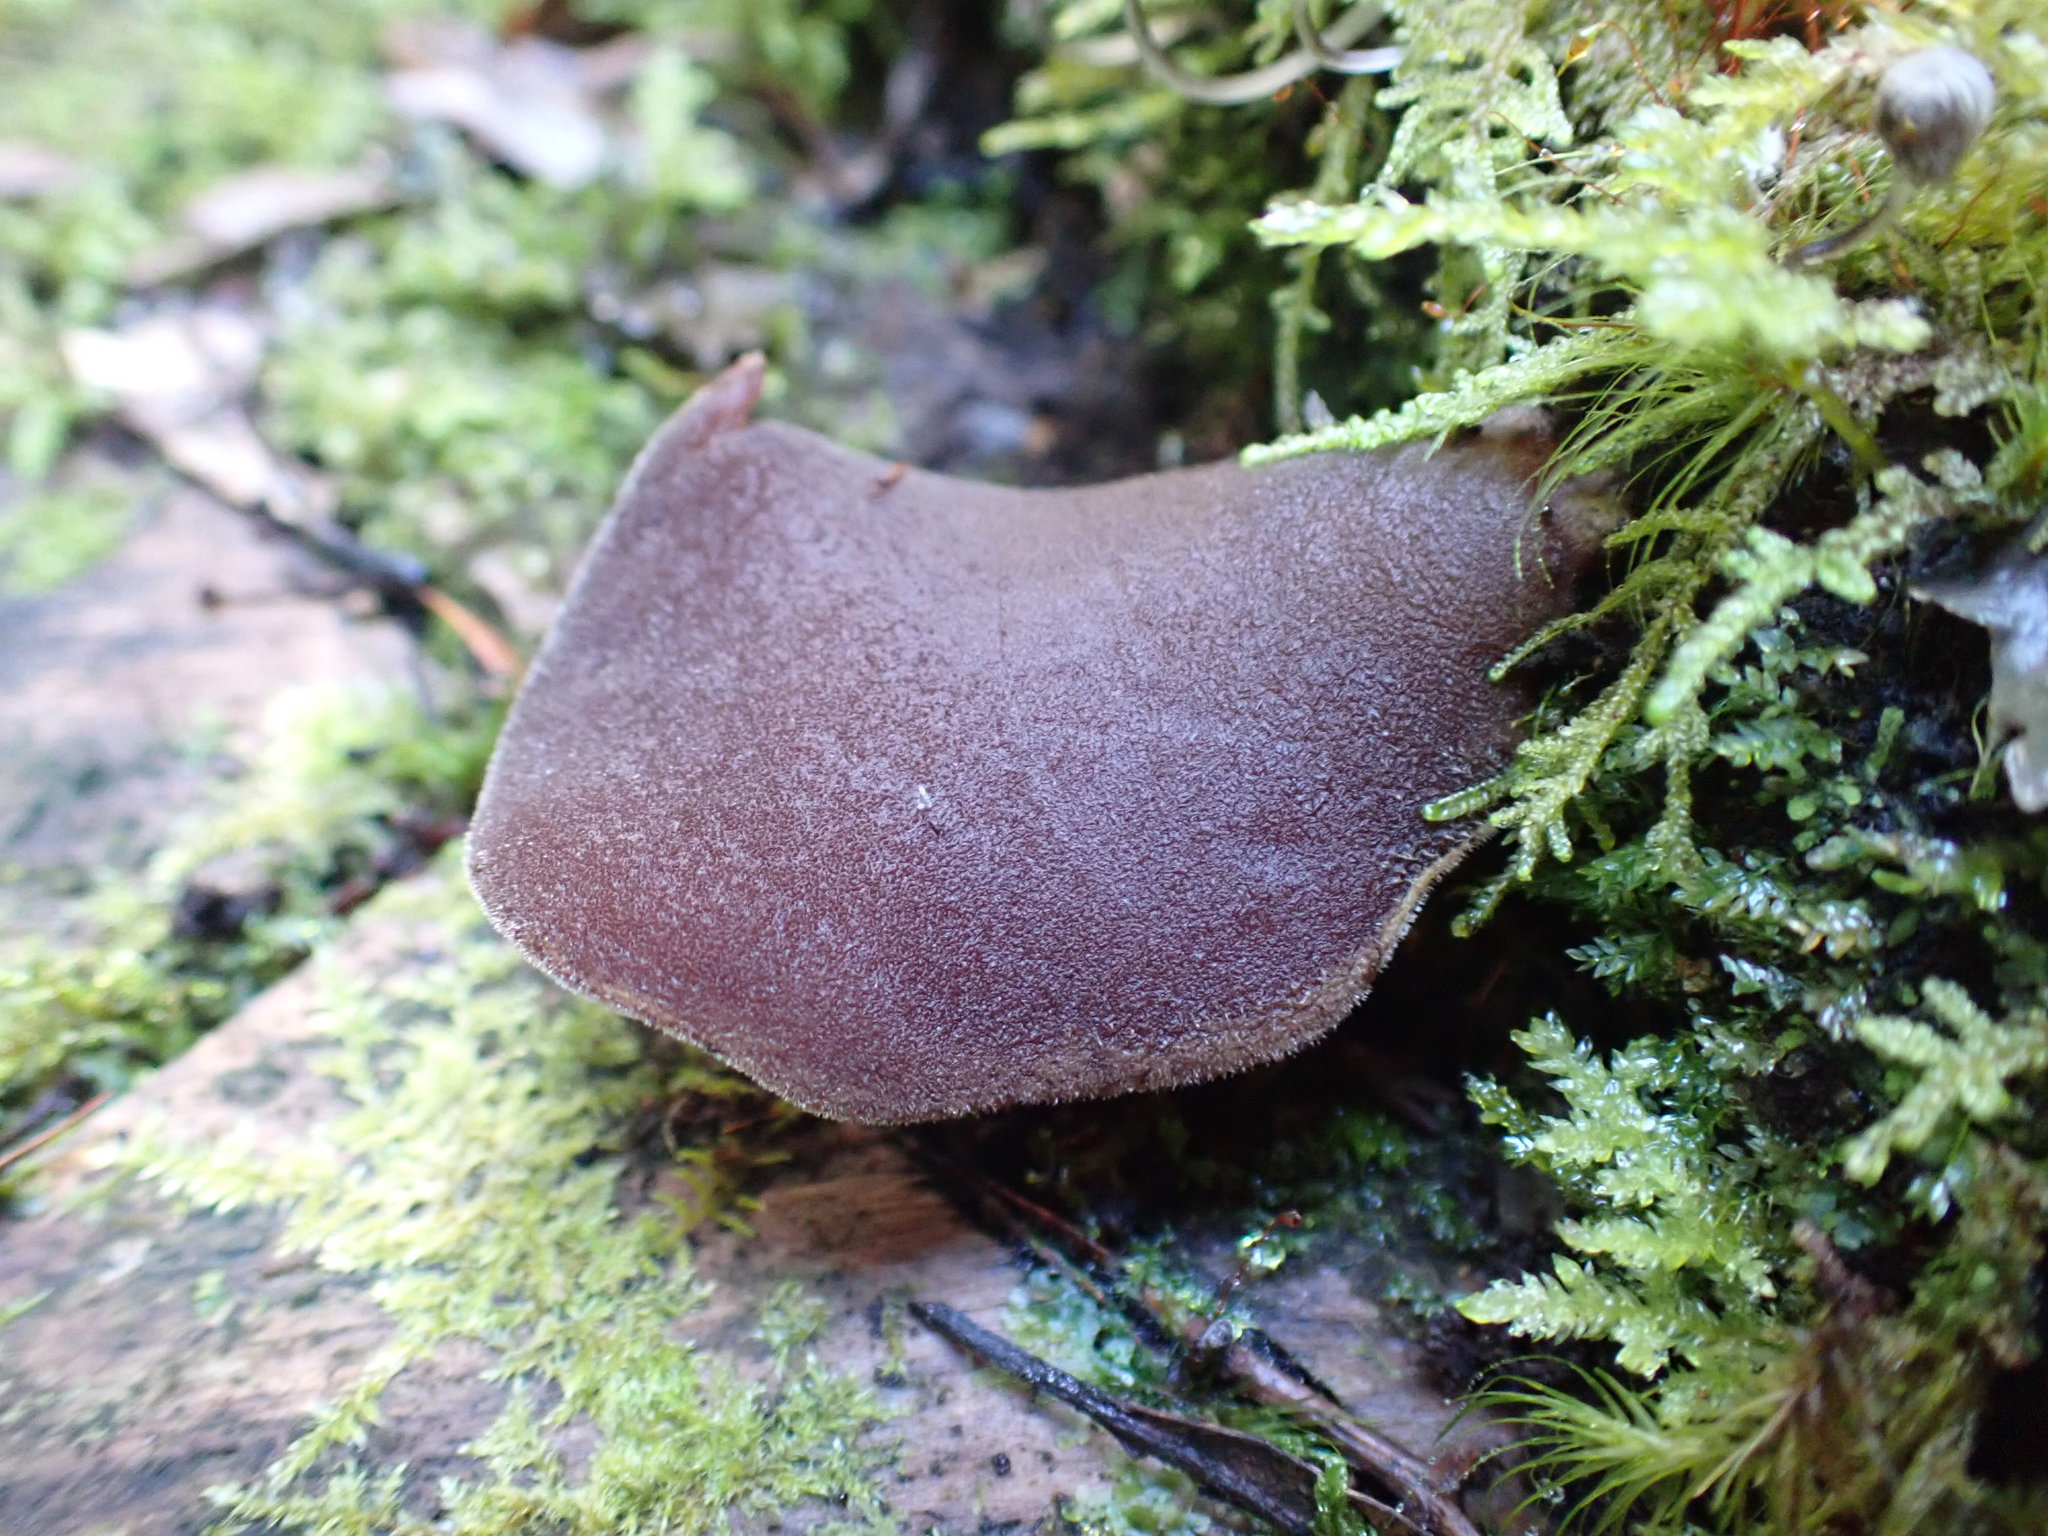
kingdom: Fungi
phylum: Basidiomycota
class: Agaricomycetes
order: Auriculariales
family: Auriculariaceae
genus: Auricularia
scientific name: Auricularia cornea
